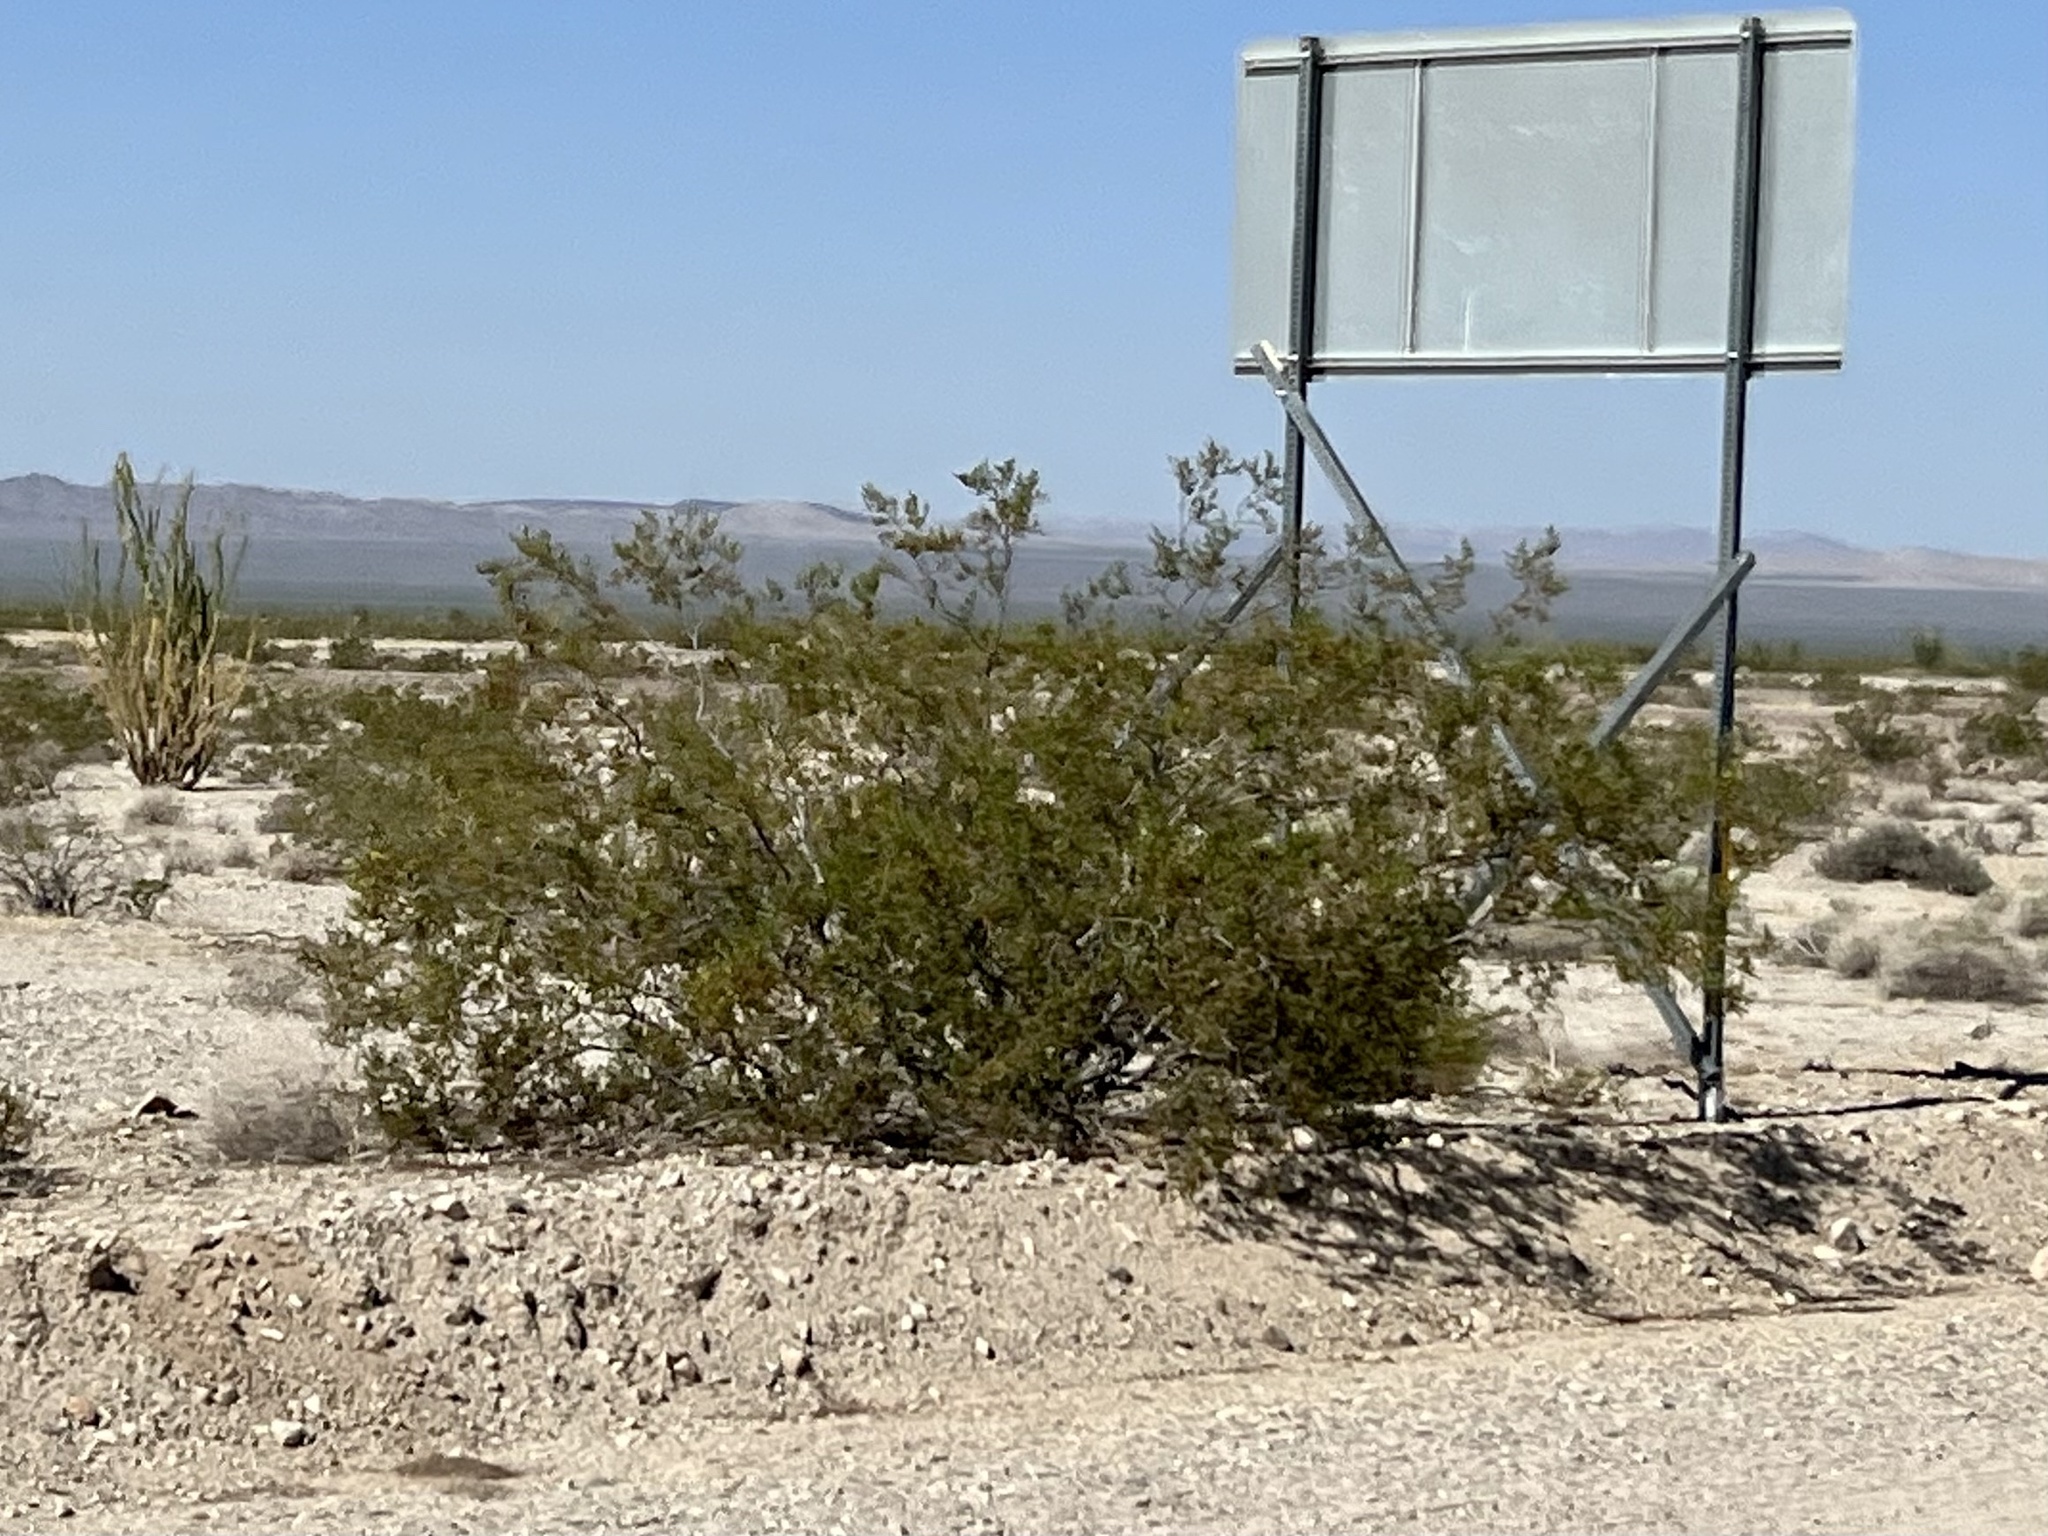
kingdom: Plantae
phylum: Tracheophyta
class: Magnoliopsida
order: Zygophyllales
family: Zygophyllaceae
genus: Larrea
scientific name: Larrea tridentata
